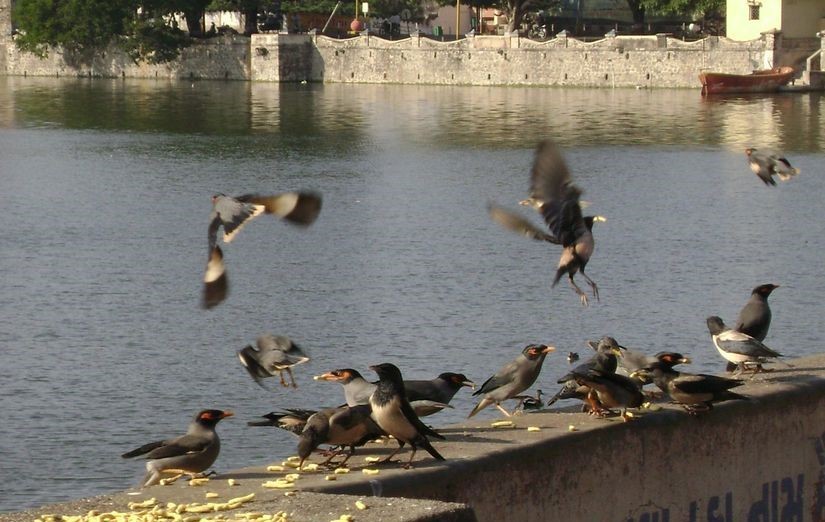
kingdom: Animalia
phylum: Chordata
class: Aves
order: Passeriformes
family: Sturnidae
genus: Pastor
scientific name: Pastor roseus
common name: Rosy starling
